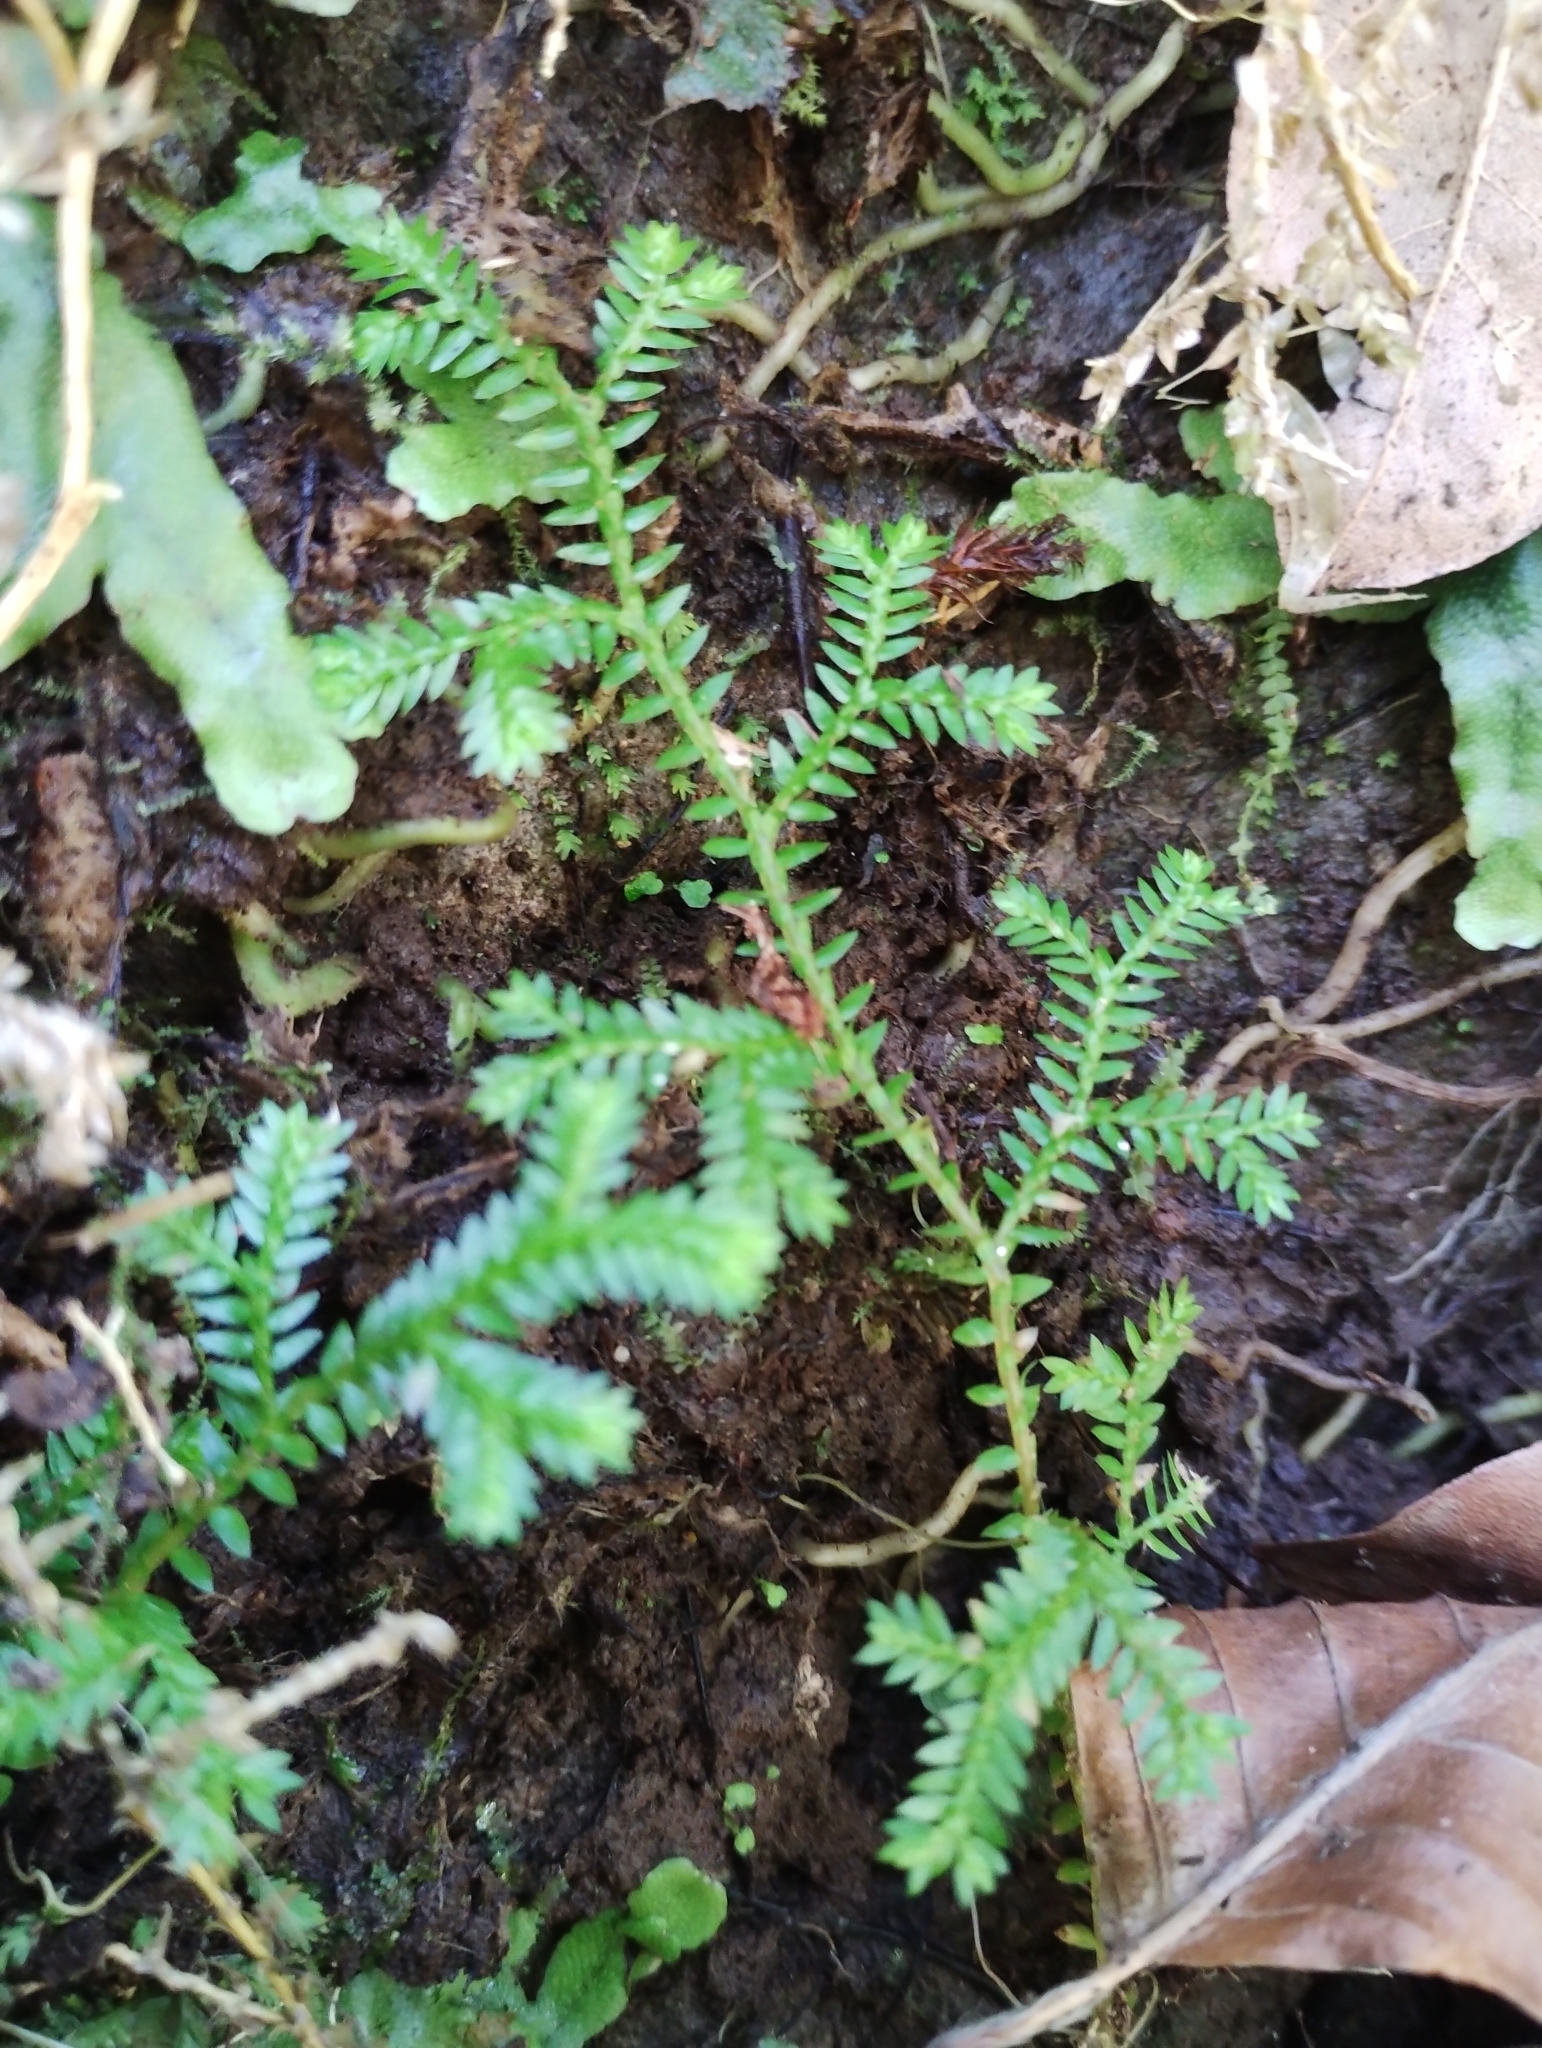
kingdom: Plantae
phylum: Tracheophyta
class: Lycopodiopsida
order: Selaginellales
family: Selaginellaceae
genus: Selaginella
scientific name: Selaginella kraussiana
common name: Krauss' spikemoss
